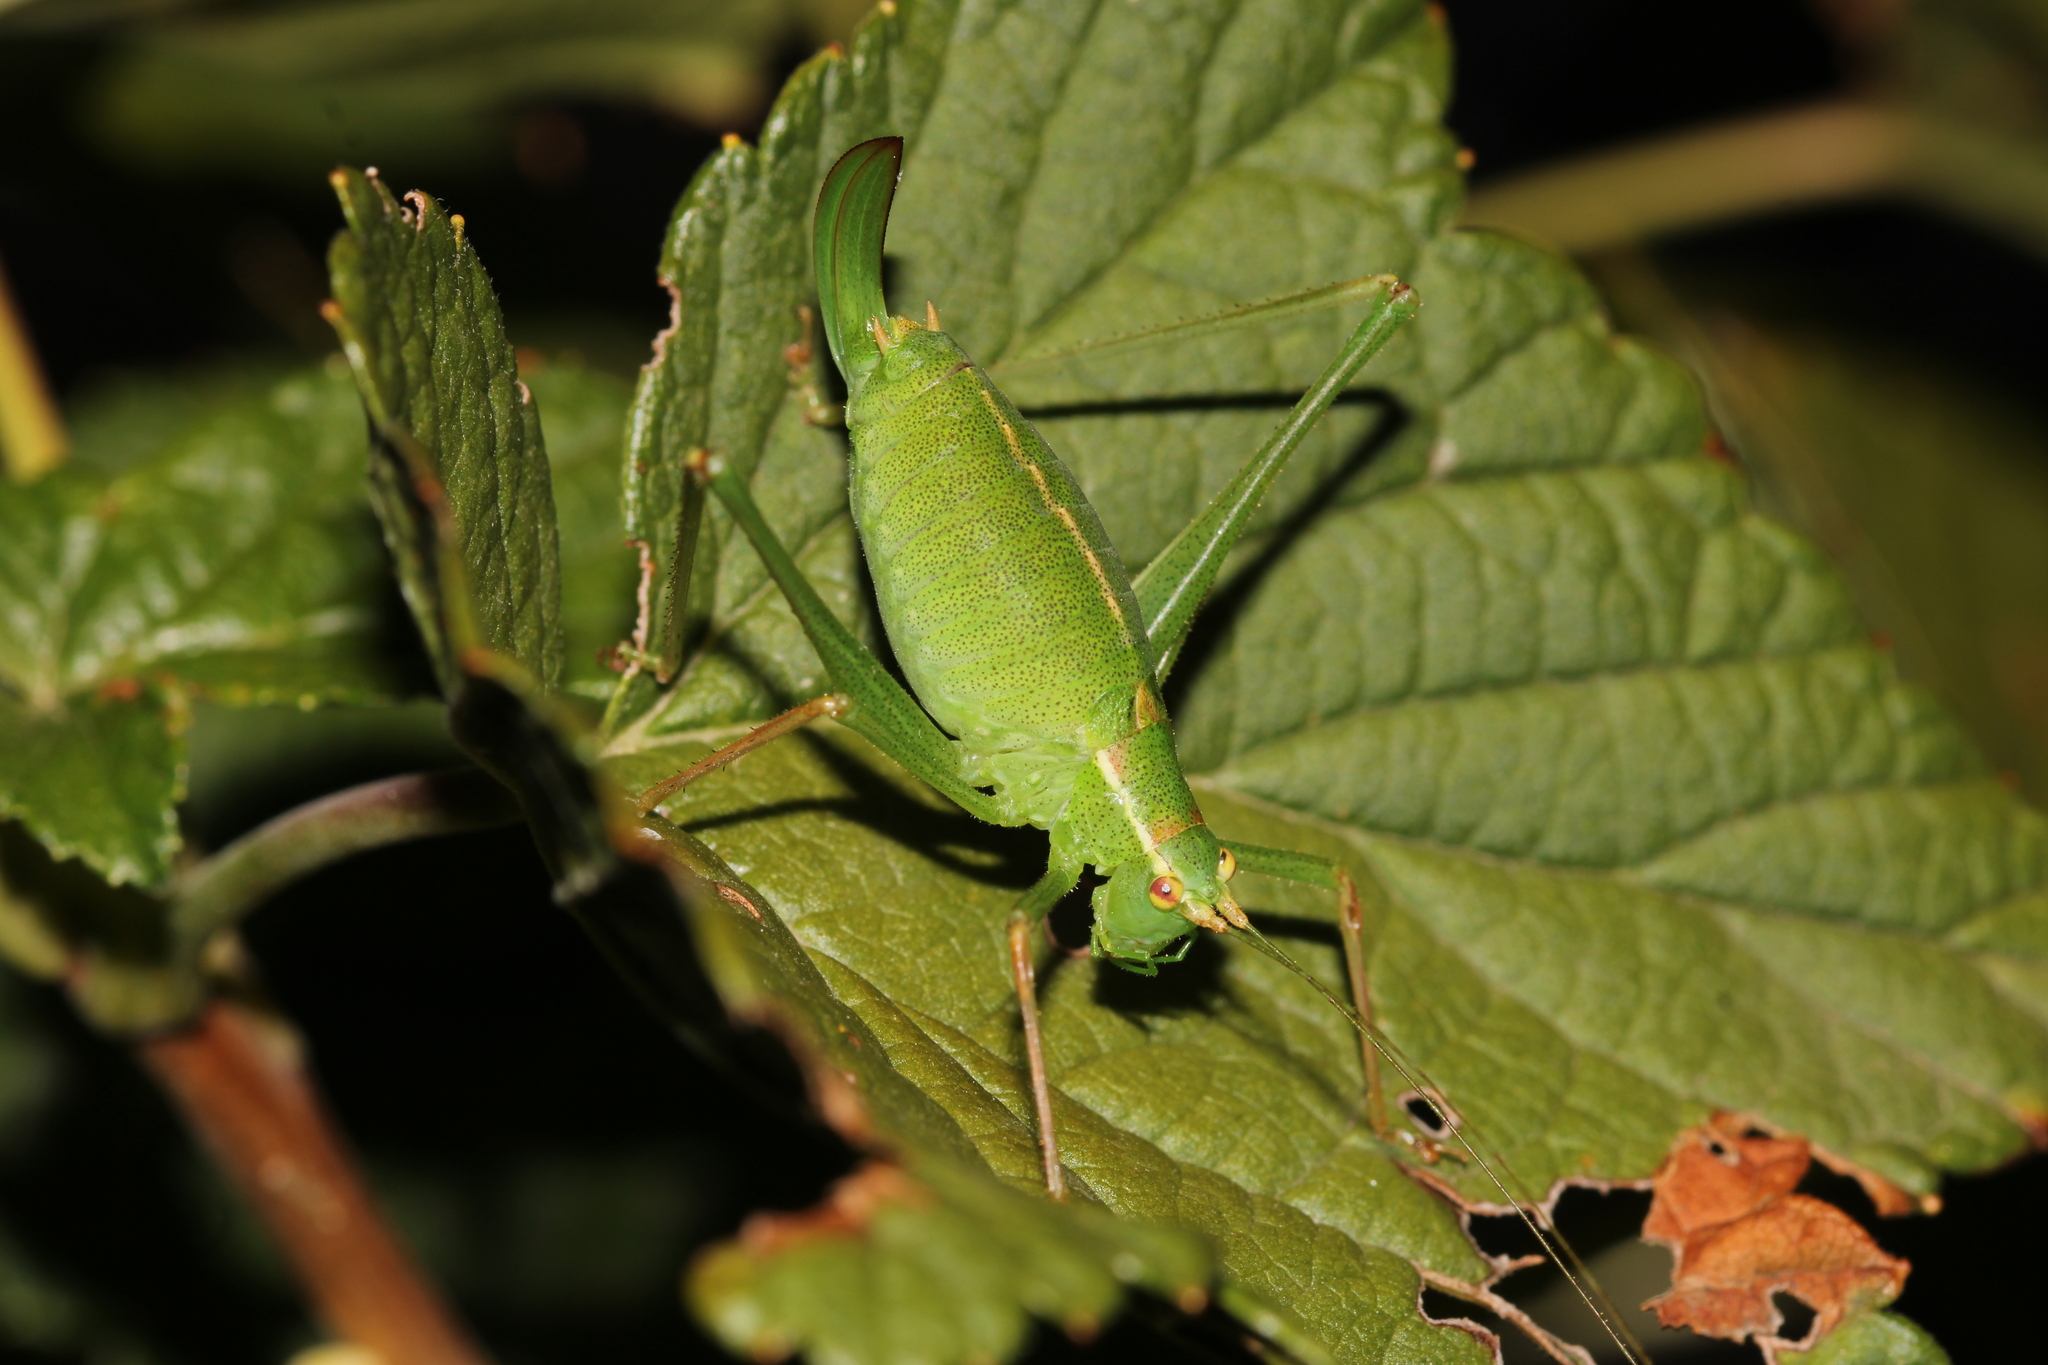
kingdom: Animalia
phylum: Arthropoda
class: Insecta
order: Orthoptera
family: Tettigoniidae
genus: Leptophyes
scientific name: Leptophyes punctatissima
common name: Speckled bush-cricket
